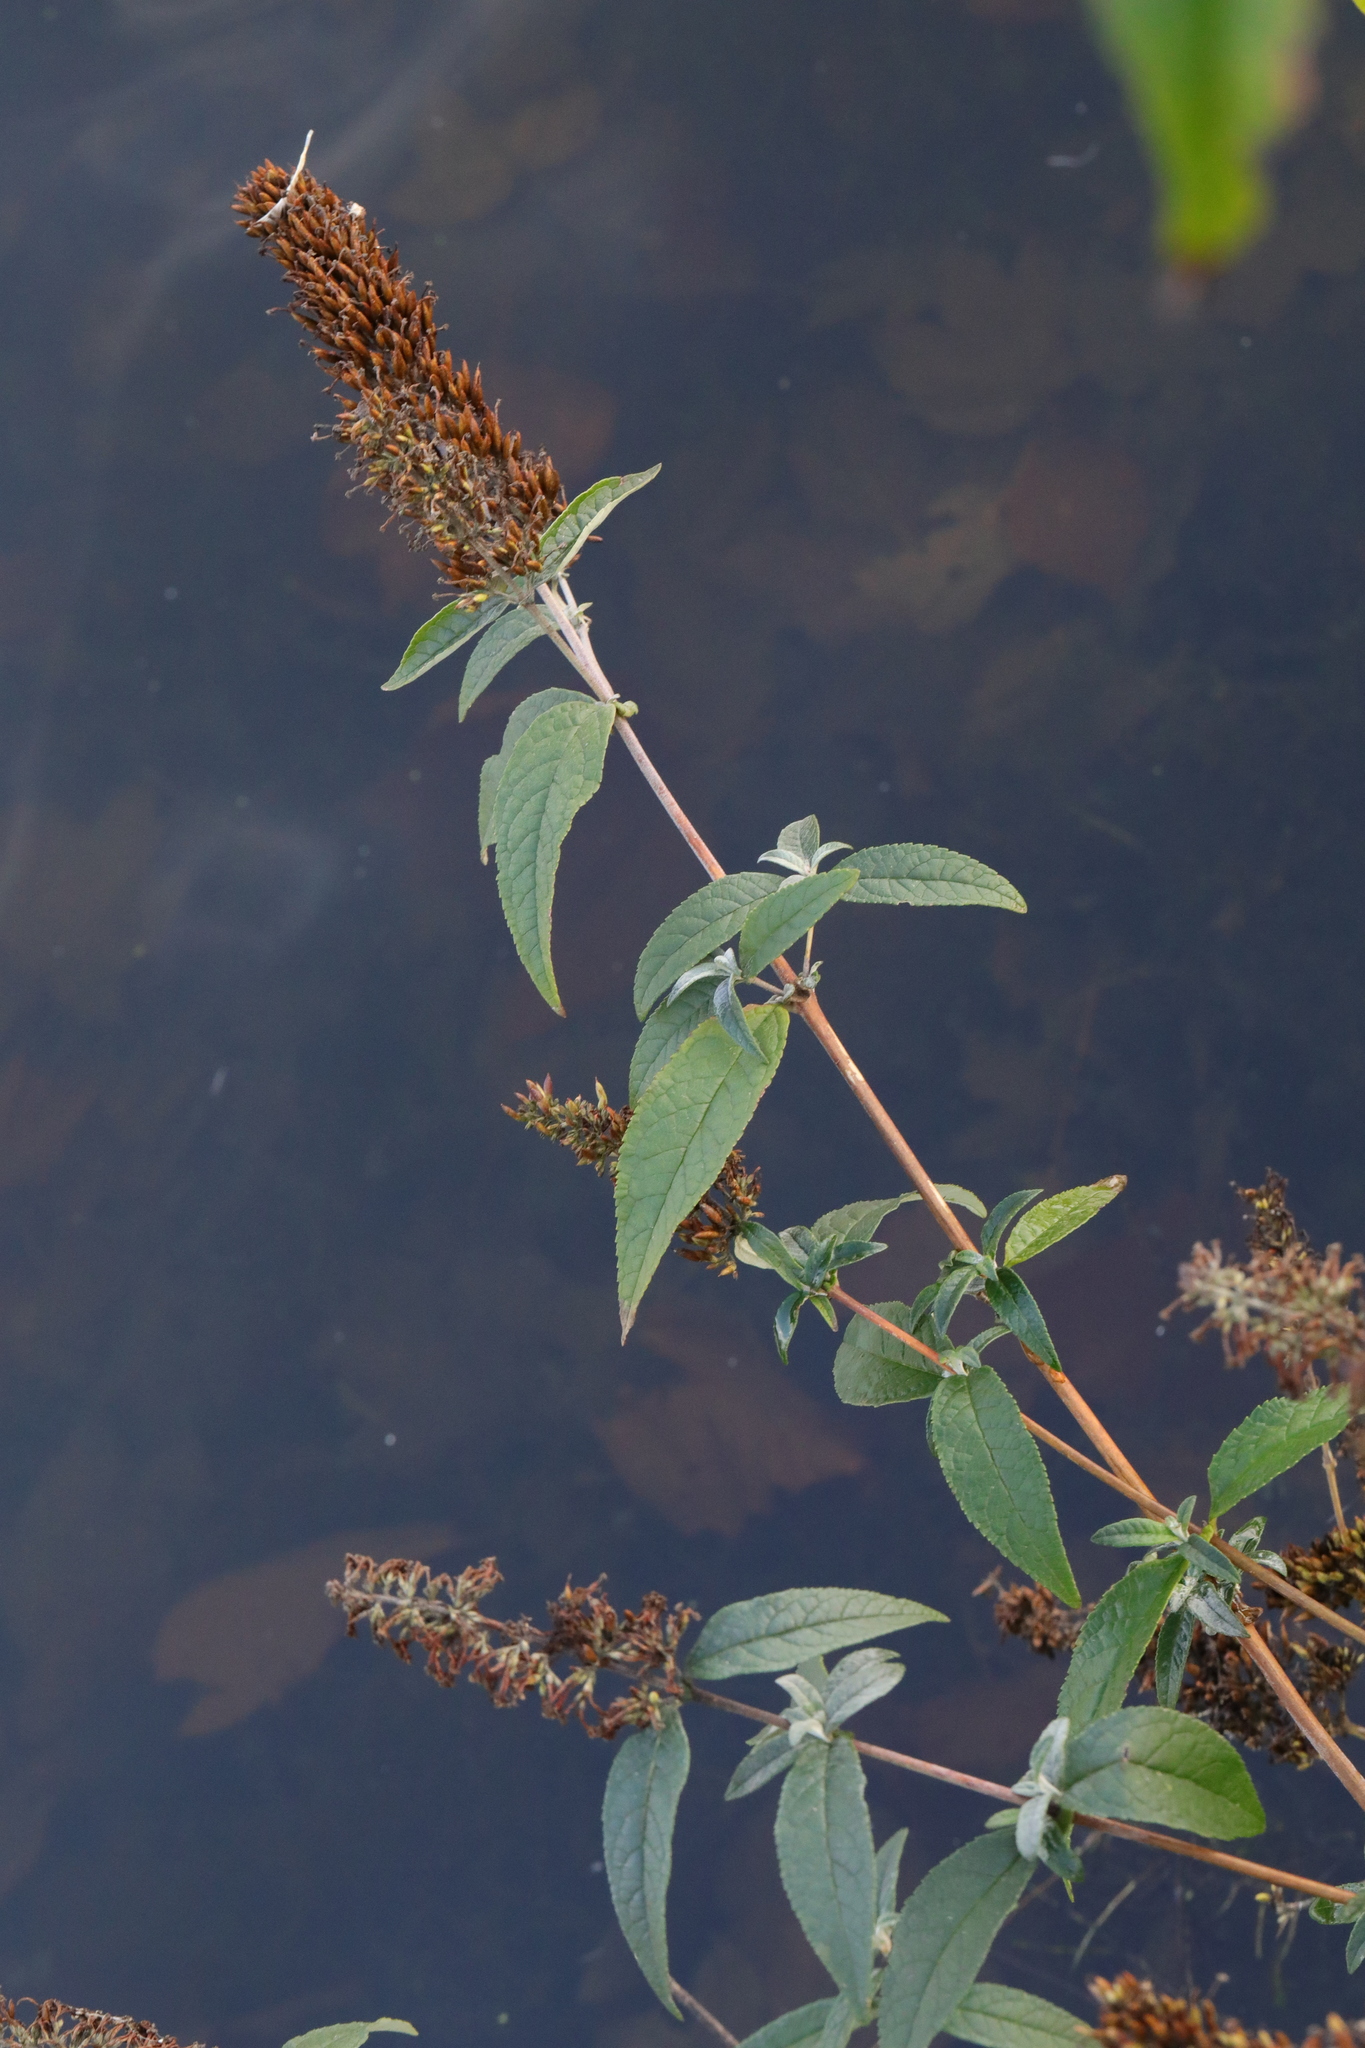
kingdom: Plantae
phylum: Tracheophyta
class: Magnoliopsida
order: Lamiales
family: Scrophulariaceae
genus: Buddleja
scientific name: Buddleja davidii
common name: Butterfly-bush
